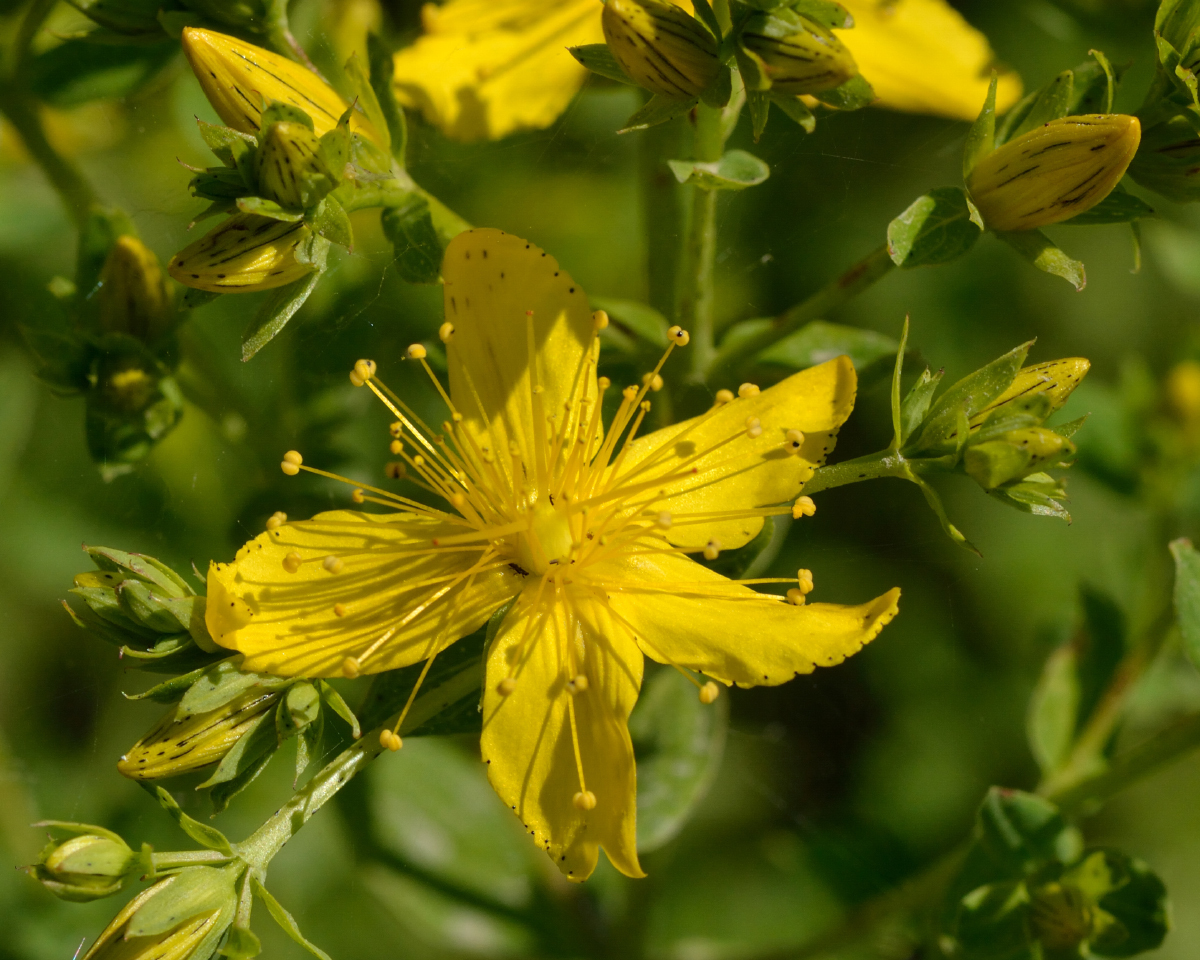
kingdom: Plantae
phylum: Tracheophyta
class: Magnoliopsida
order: Malpighiales
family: Hypericaceae
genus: Hypericum
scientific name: Hypericum perforatum
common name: Common st. johnswort
